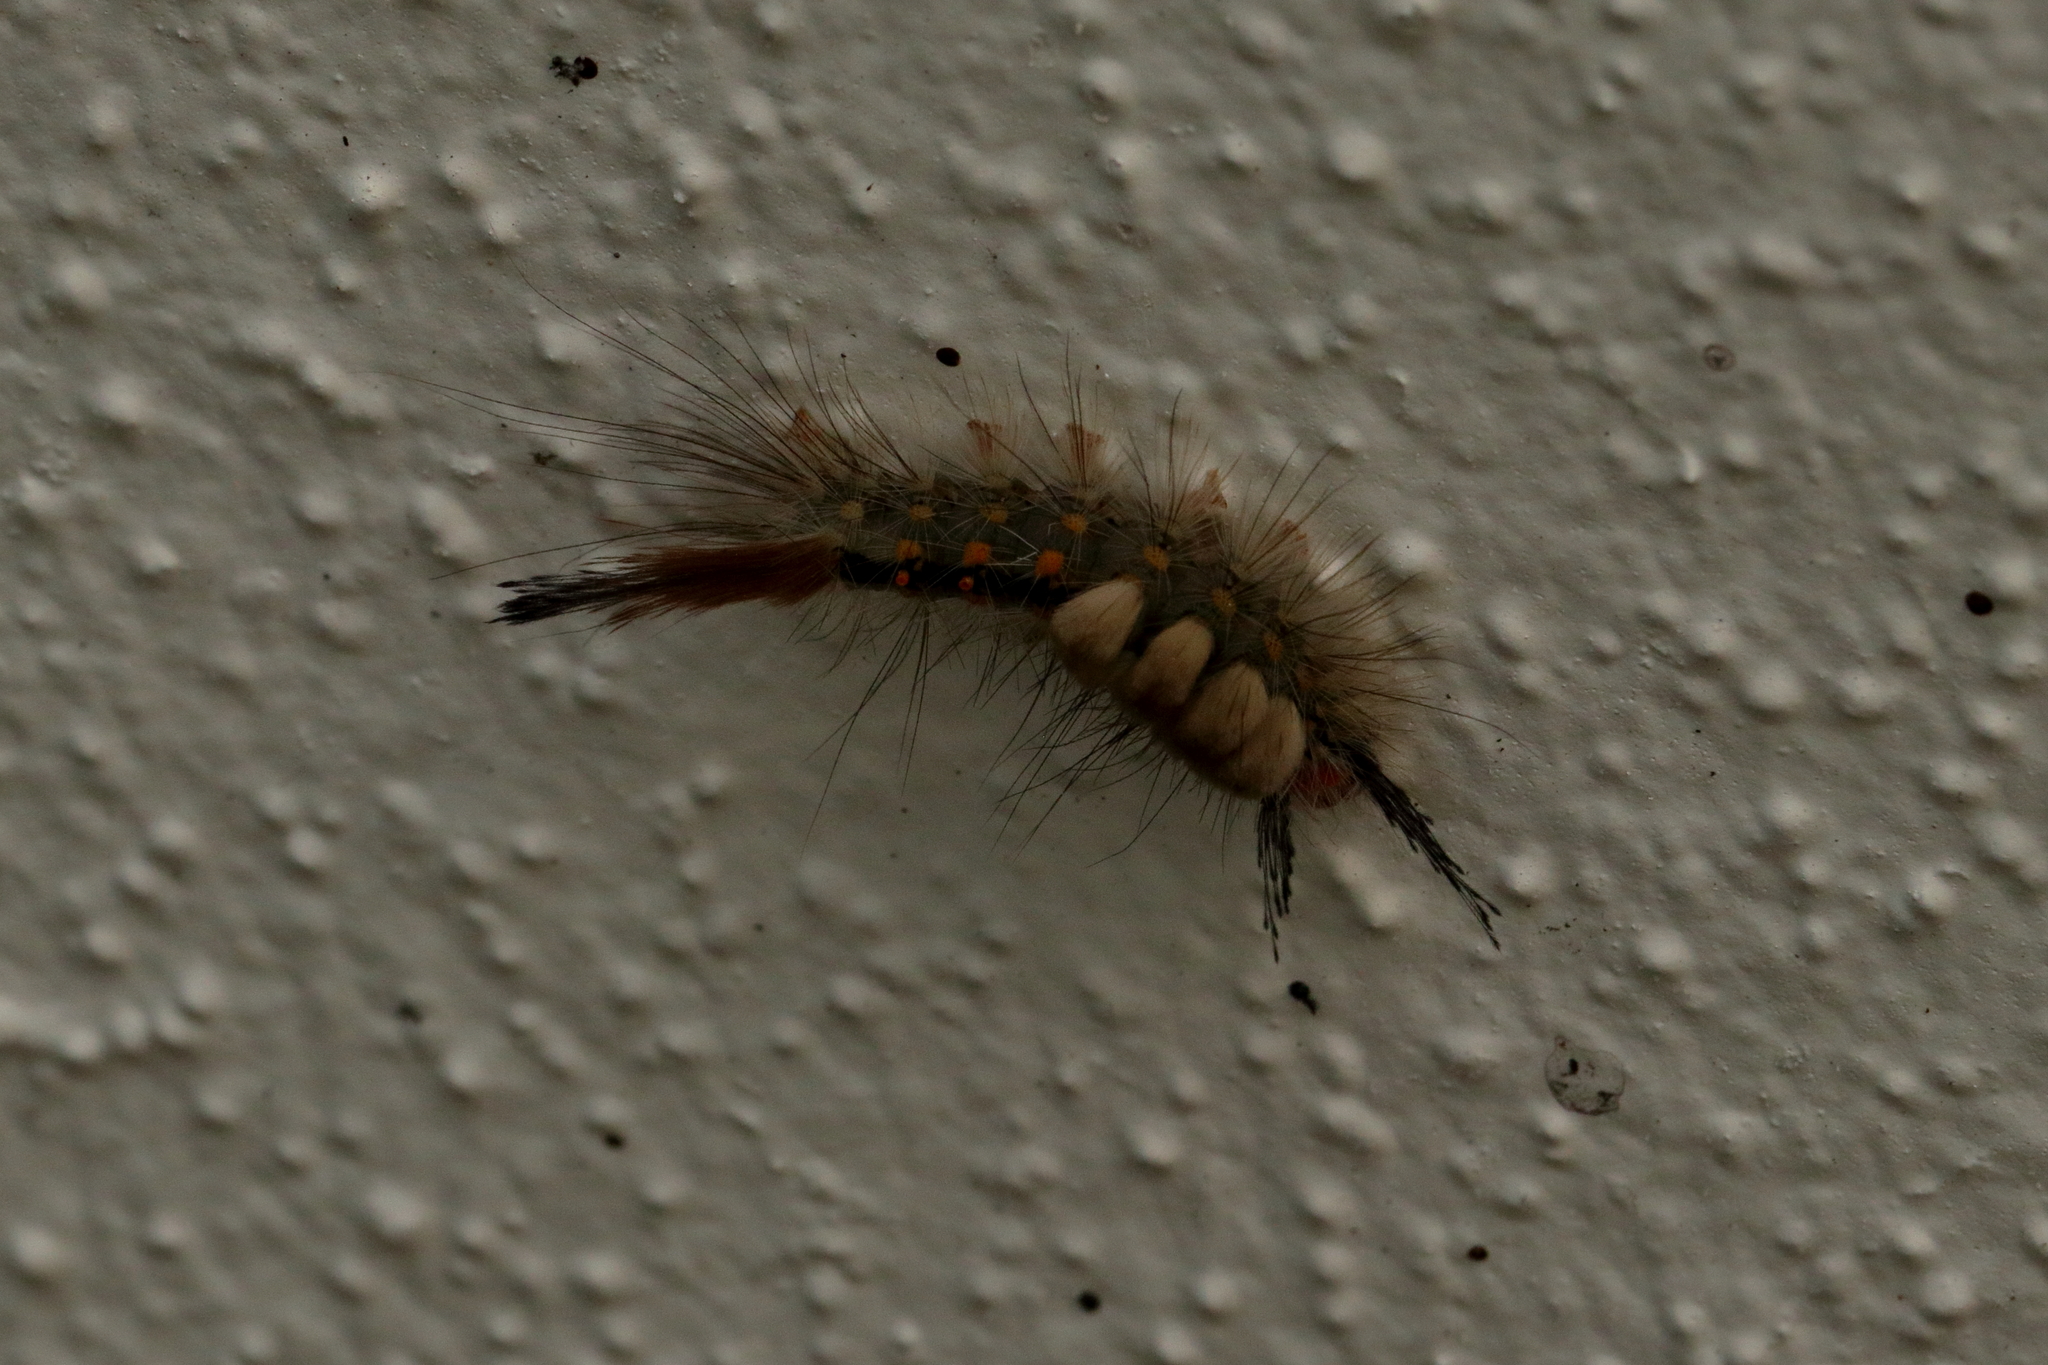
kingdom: Animalia
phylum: Arthropoda
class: Insecta
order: Lepidoptera
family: Erebidae
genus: Orgyia
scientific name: Orgyia detrita
